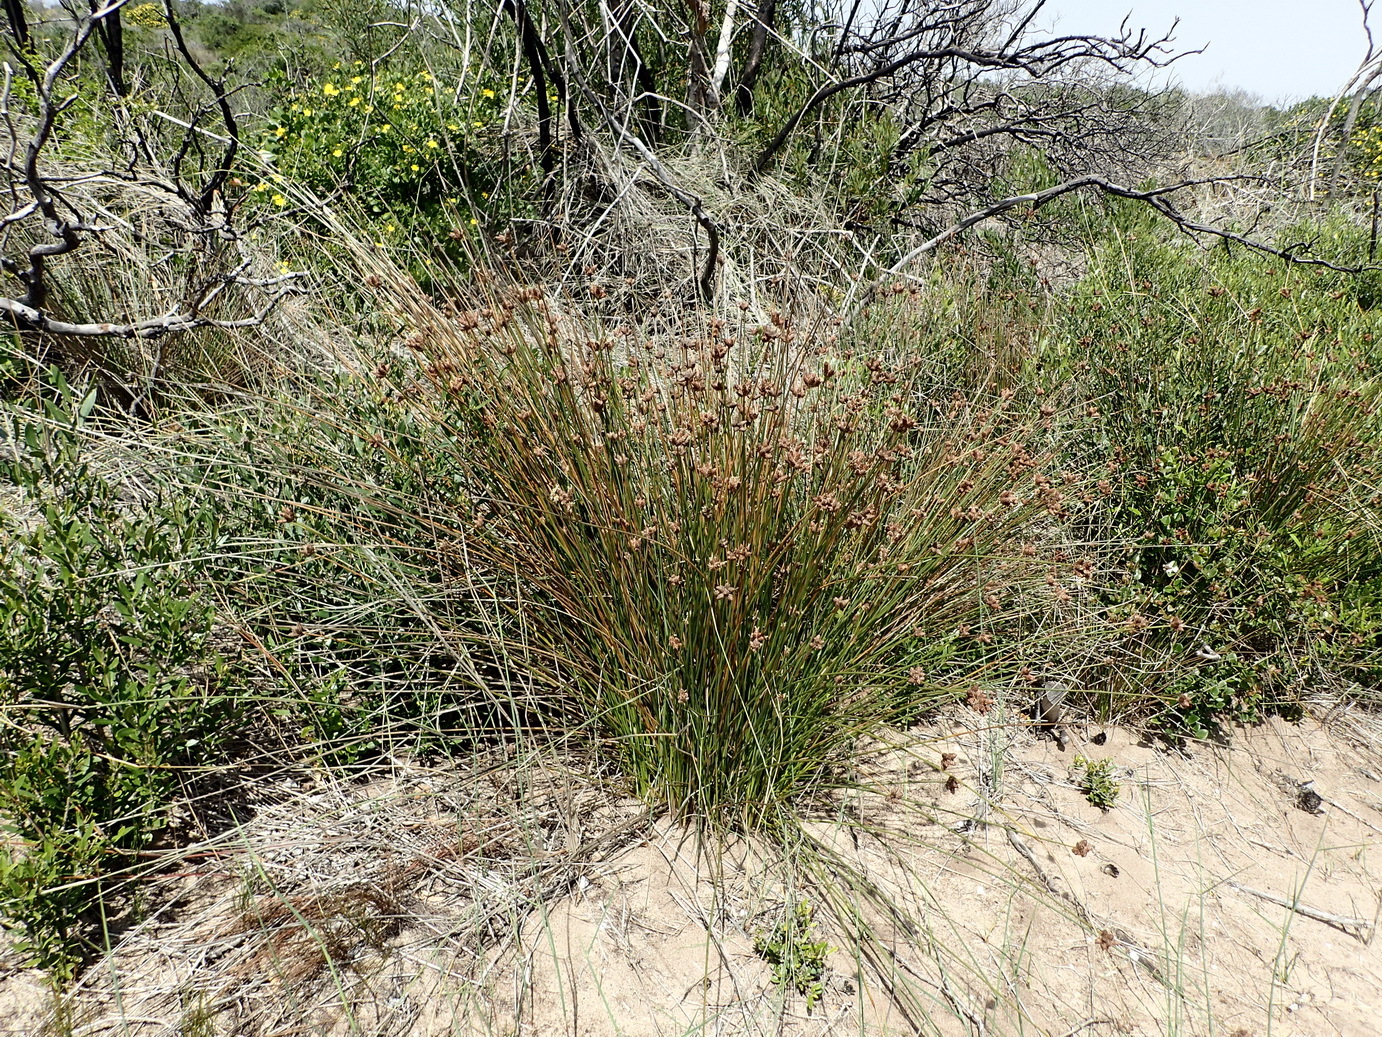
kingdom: Plantae
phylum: Tracheophyta
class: Liliopsida
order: Poales
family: Cyperaceae
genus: Hellmuthia
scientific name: Hellmuthia membranacea
